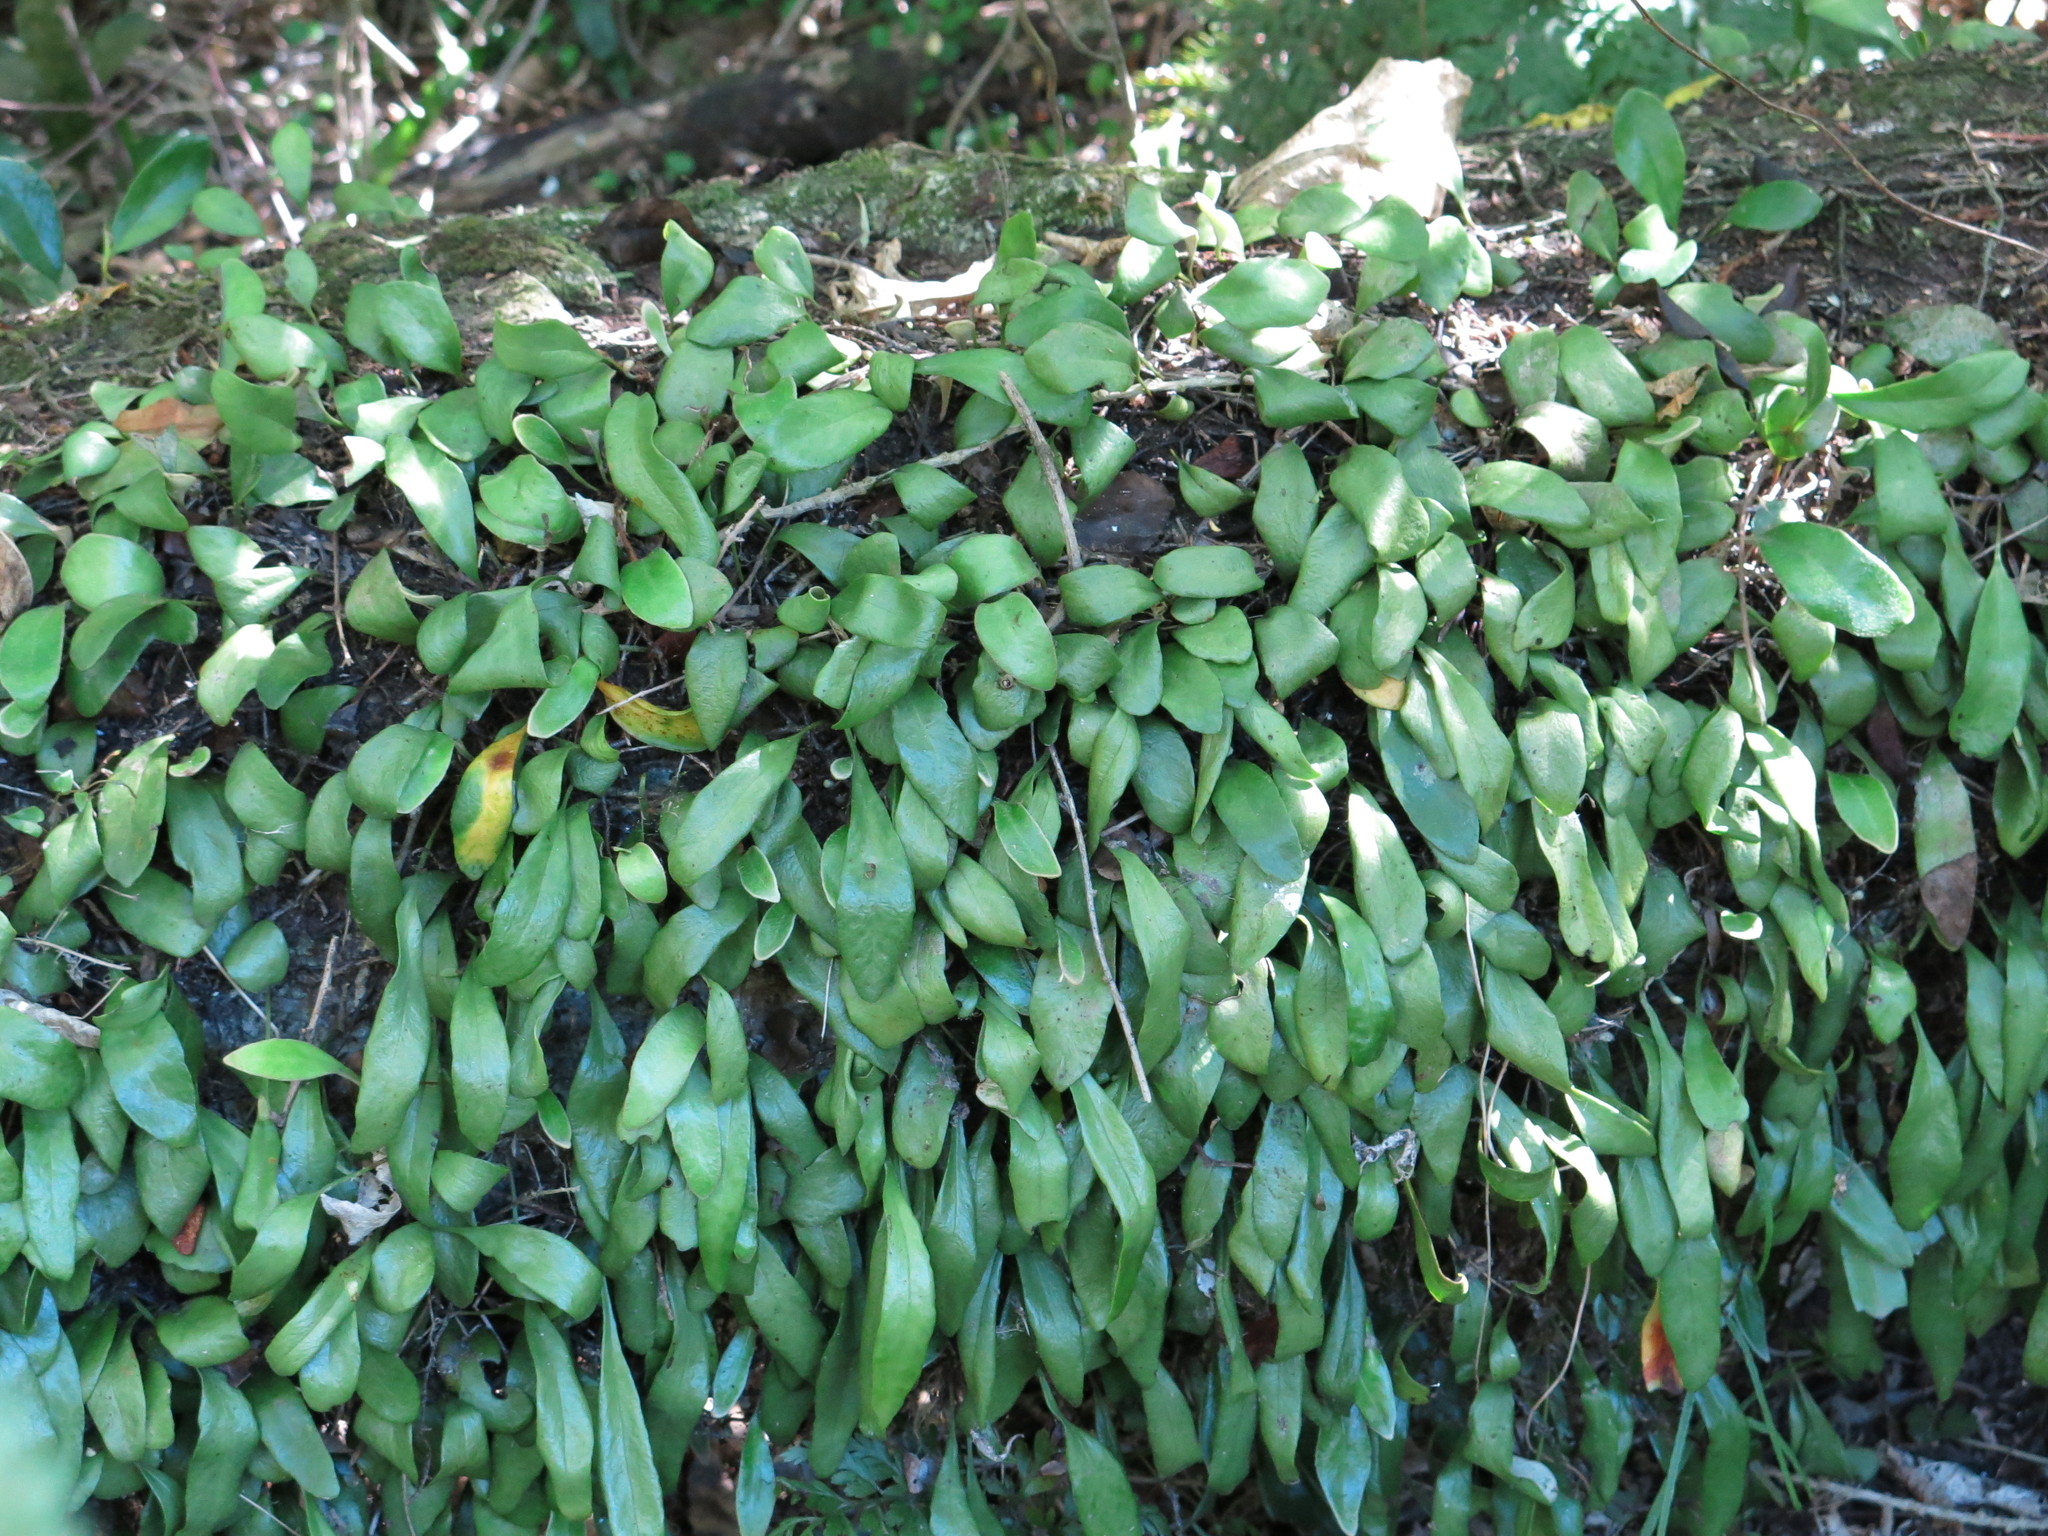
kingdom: Plantae
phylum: Tracheophyta
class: Polypodiopsida
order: Polypodiales
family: Polypodiaceae
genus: Pyrrosia
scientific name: Pyrrosia eleagnifolia
